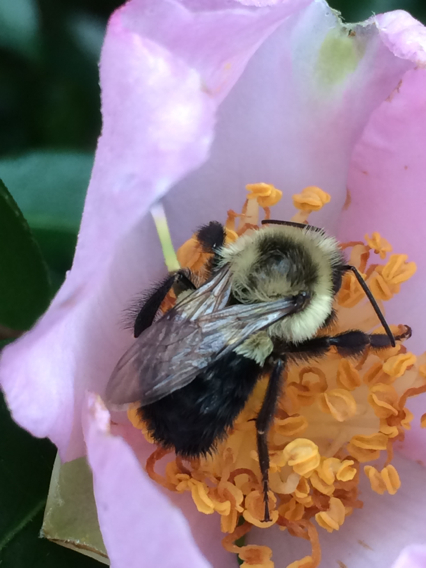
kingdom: Animalia
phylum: Arthropoda
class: Insecta
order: Hymenoptera
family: Apidae
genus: Bombus
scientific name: Bombus impatiens
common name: Common eastern bumble bee
